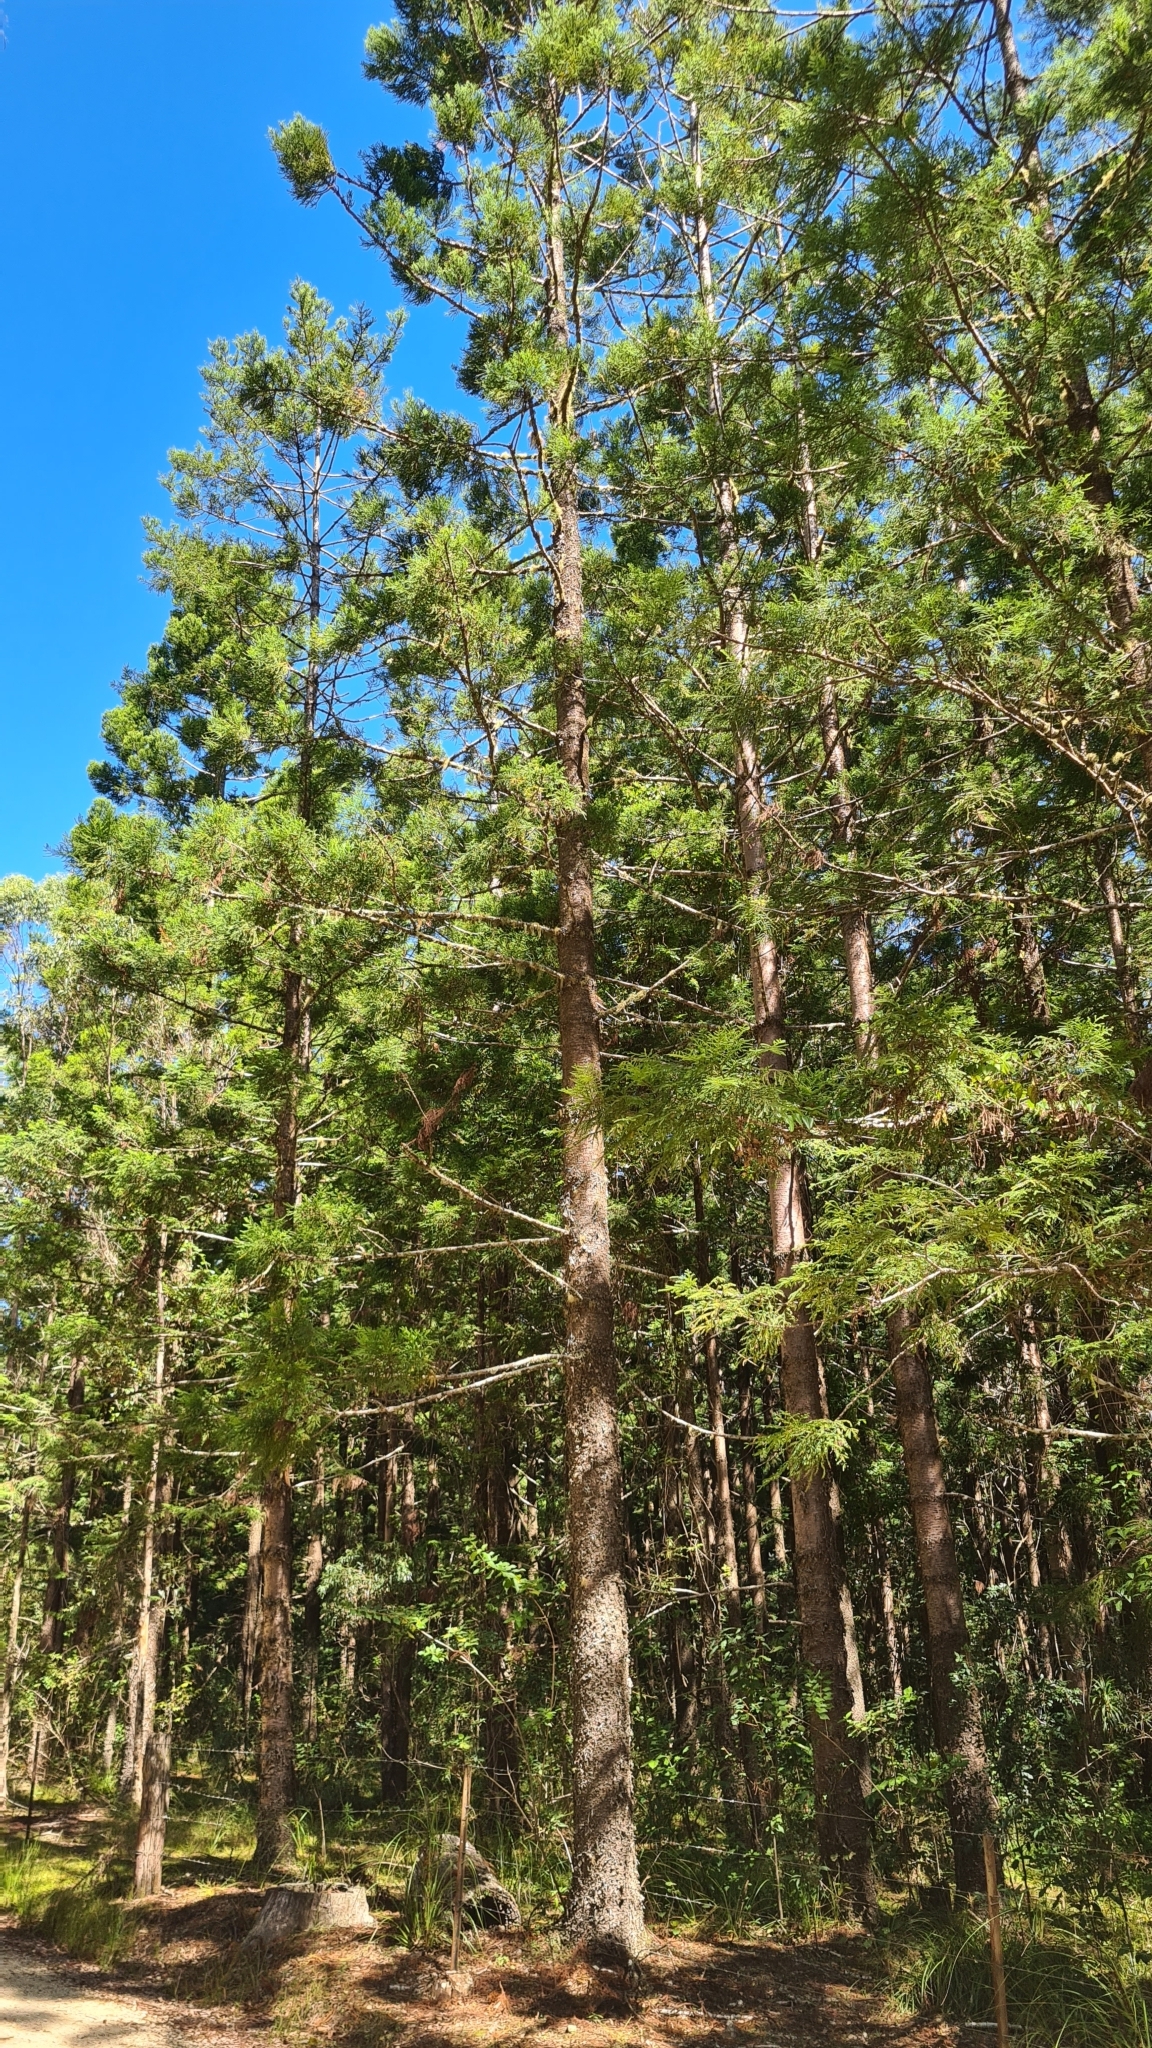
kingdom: Plantae
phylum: Tracheophyta
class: Pinopsida
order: Pinales
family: Araucariaceae
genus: Araucaria
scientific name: Araucaria cunninghamii
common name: Colonial pine
